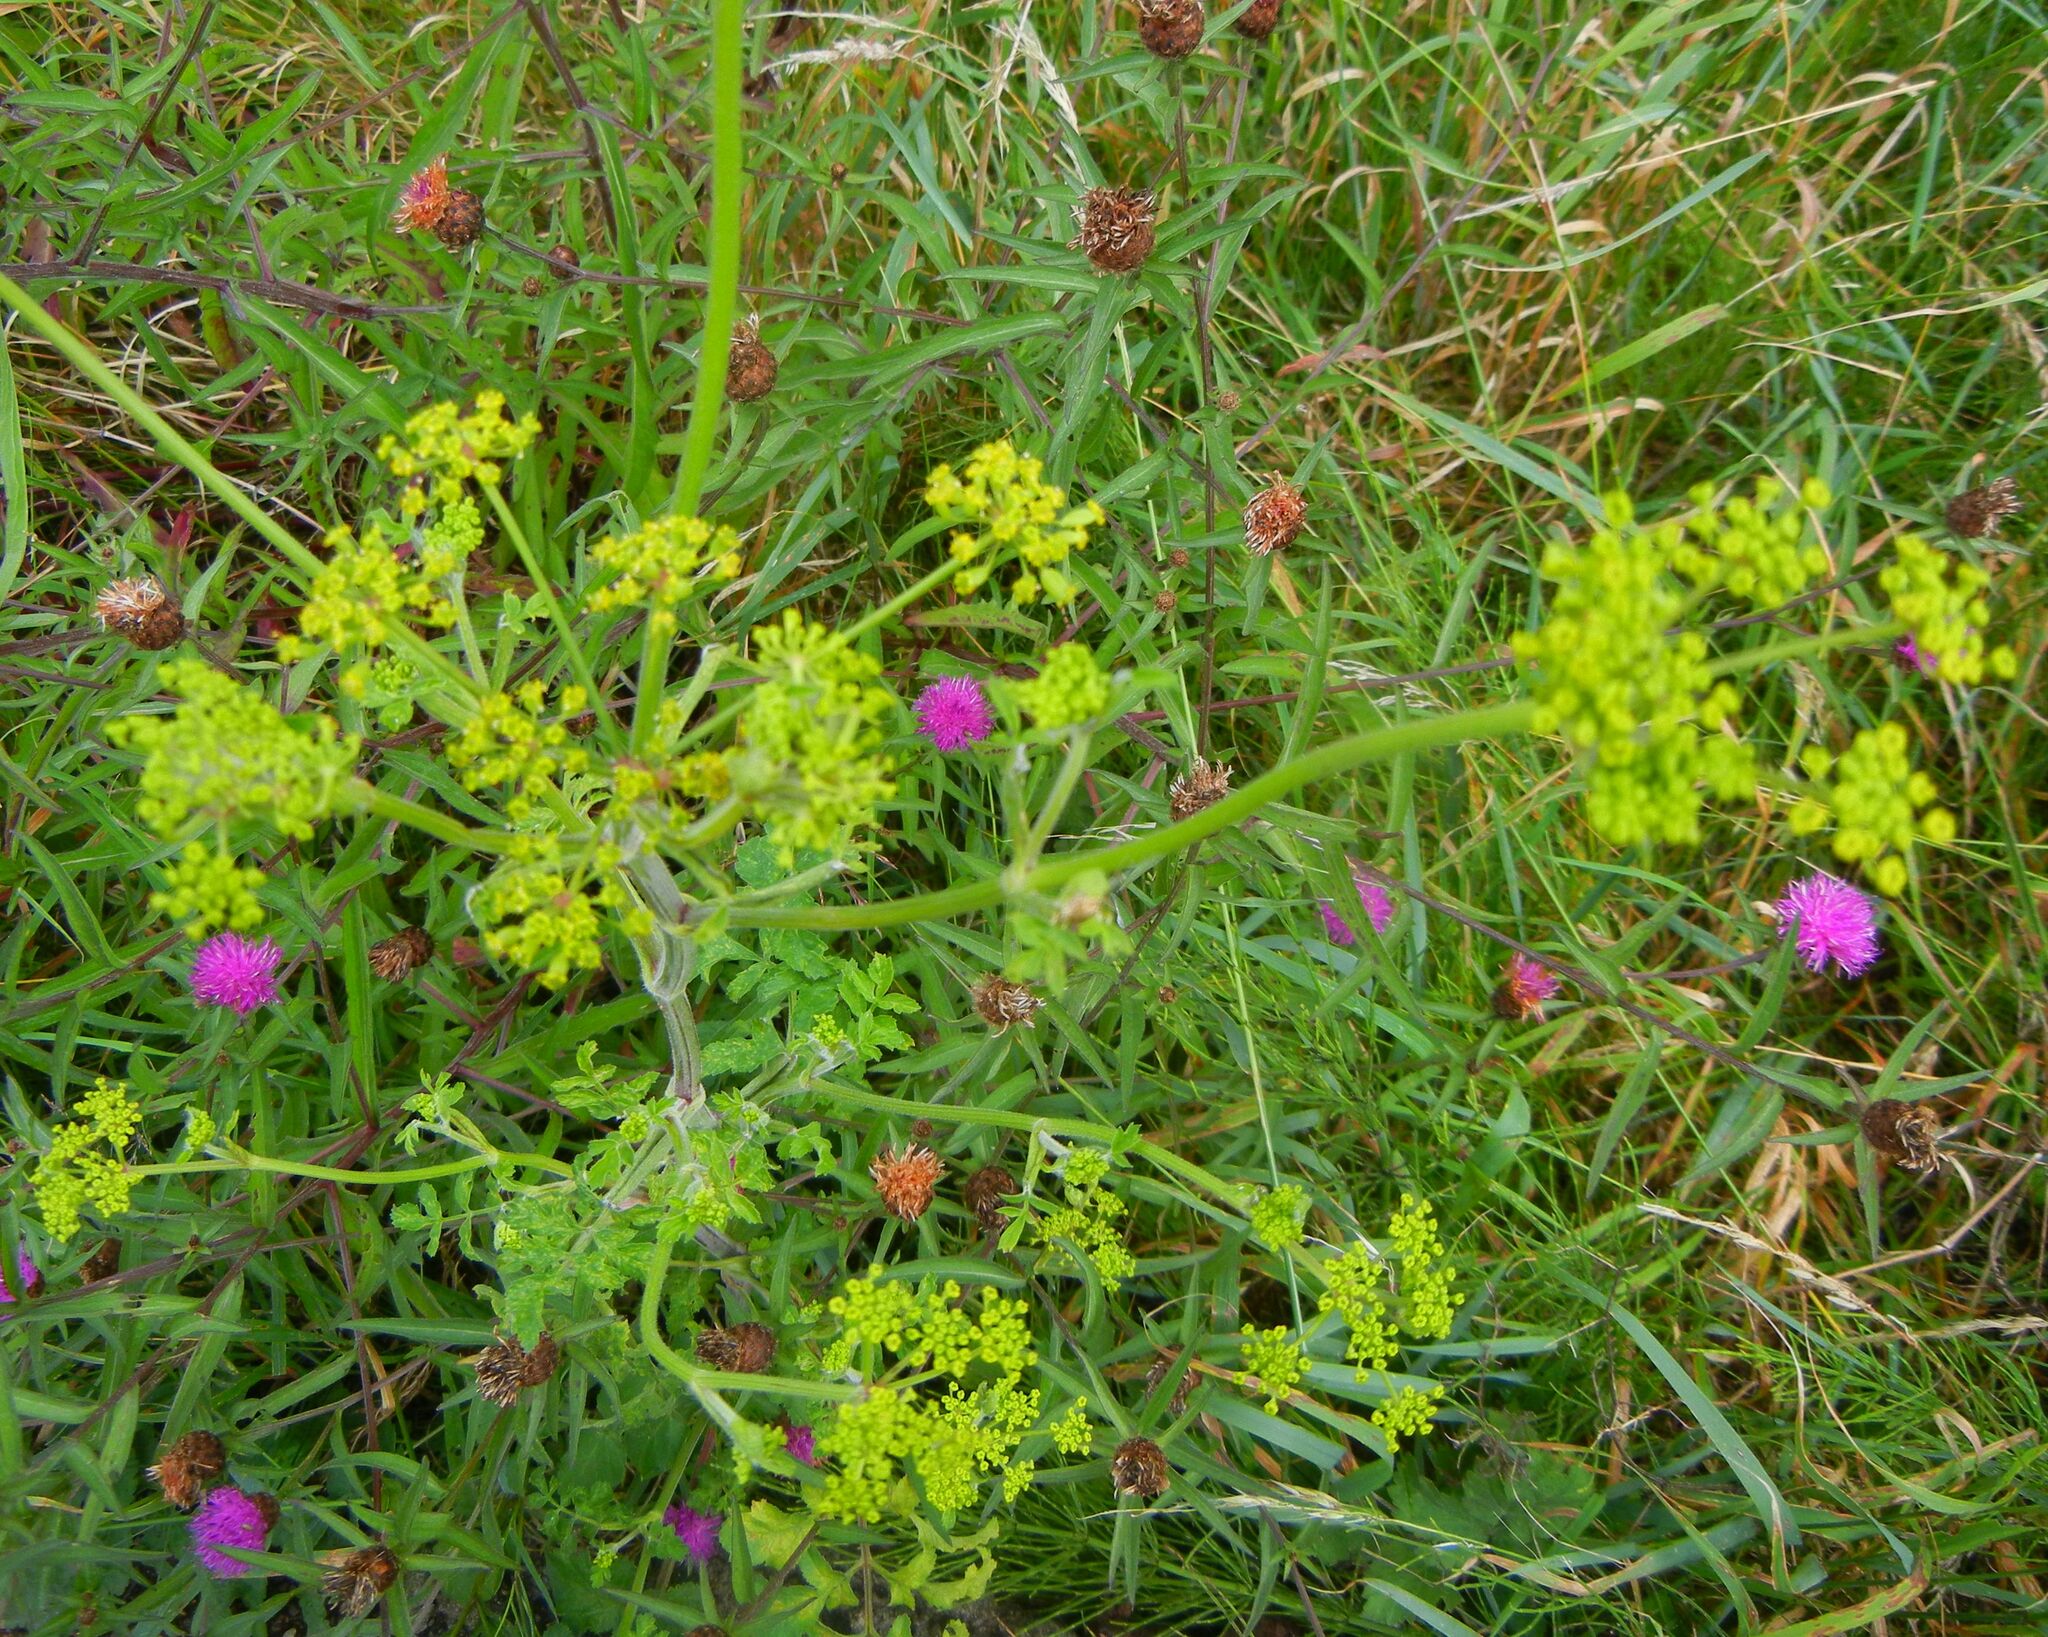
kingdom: Plantae
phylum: Tracheophyta
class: Magnoliopsida
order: Apiales
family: Apiaceae
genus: Pastinaca
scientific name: Pastinaca sativa
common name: Wild parsnip
